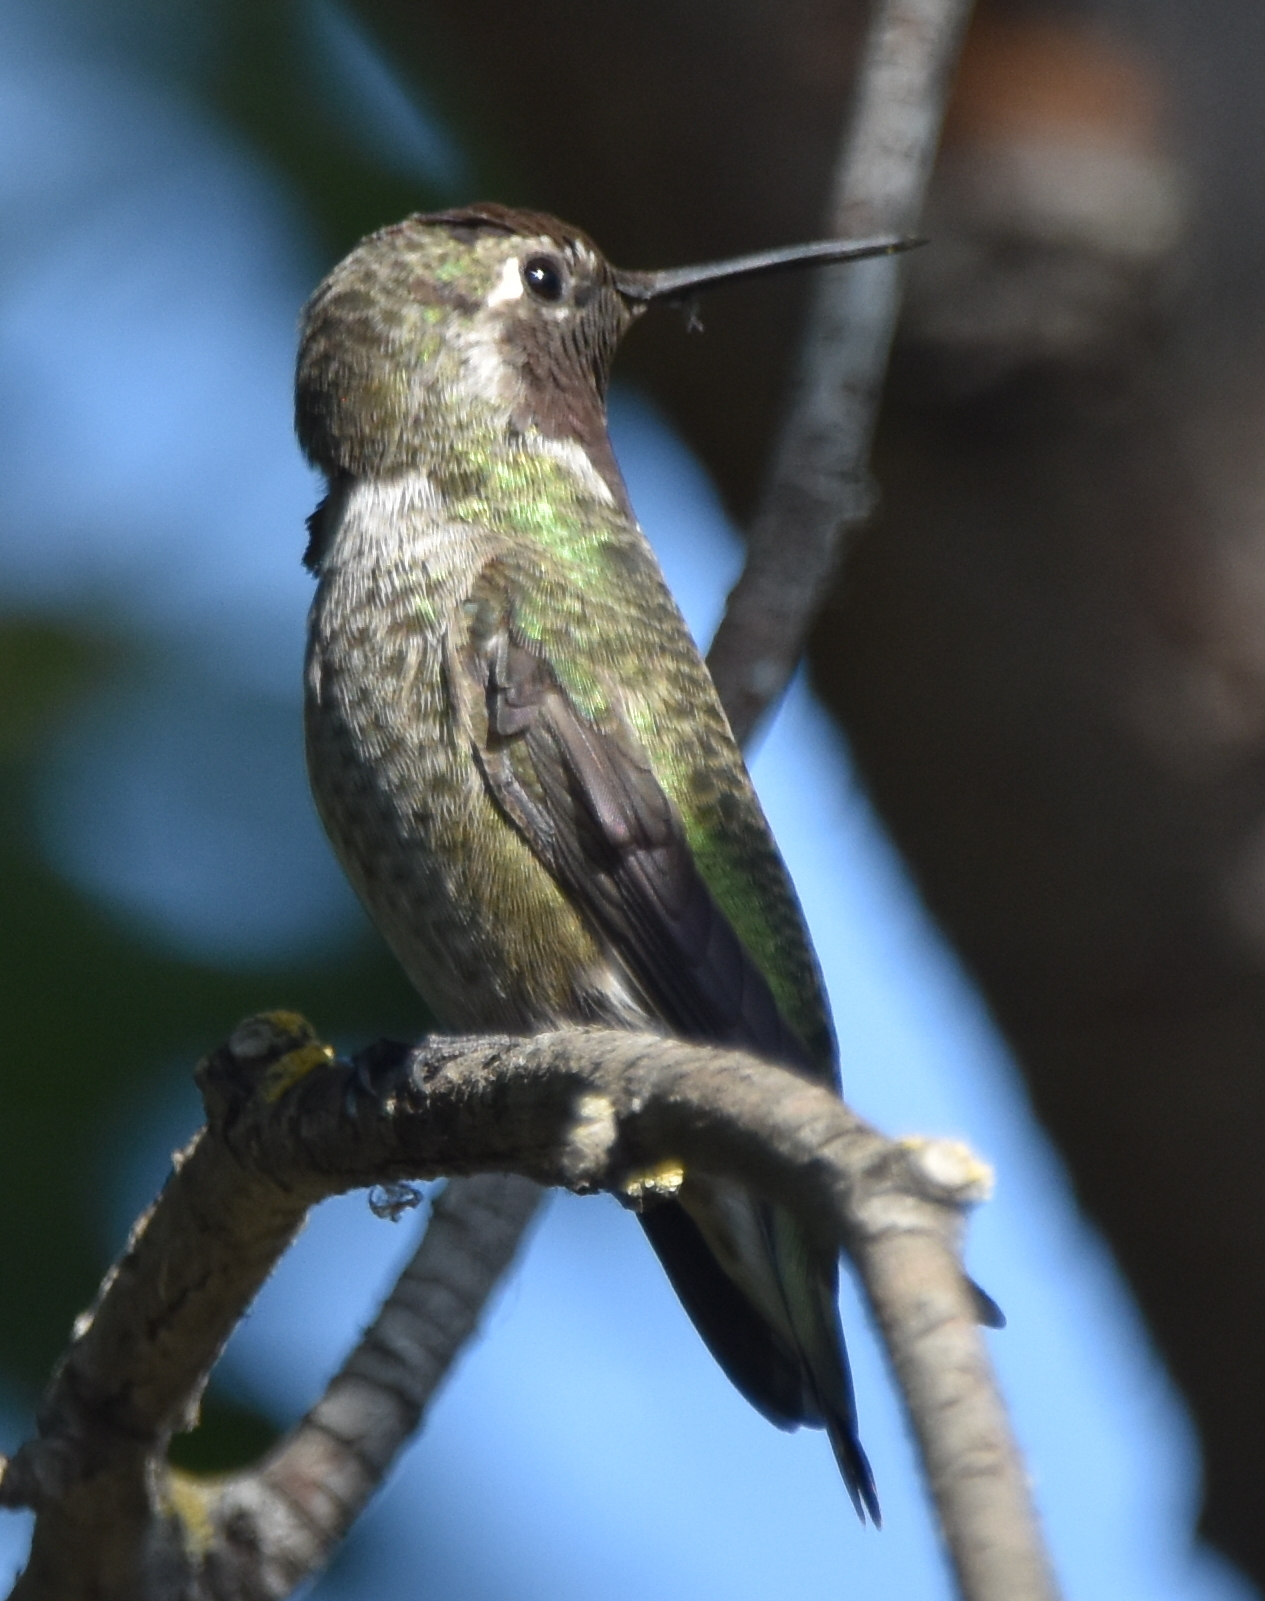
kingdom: Animalia
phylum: Chordata
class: Aves
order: Apodiformes
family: Trochilidae
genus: Calypte
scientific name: Calypte anna
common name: Anna's hummingbird
